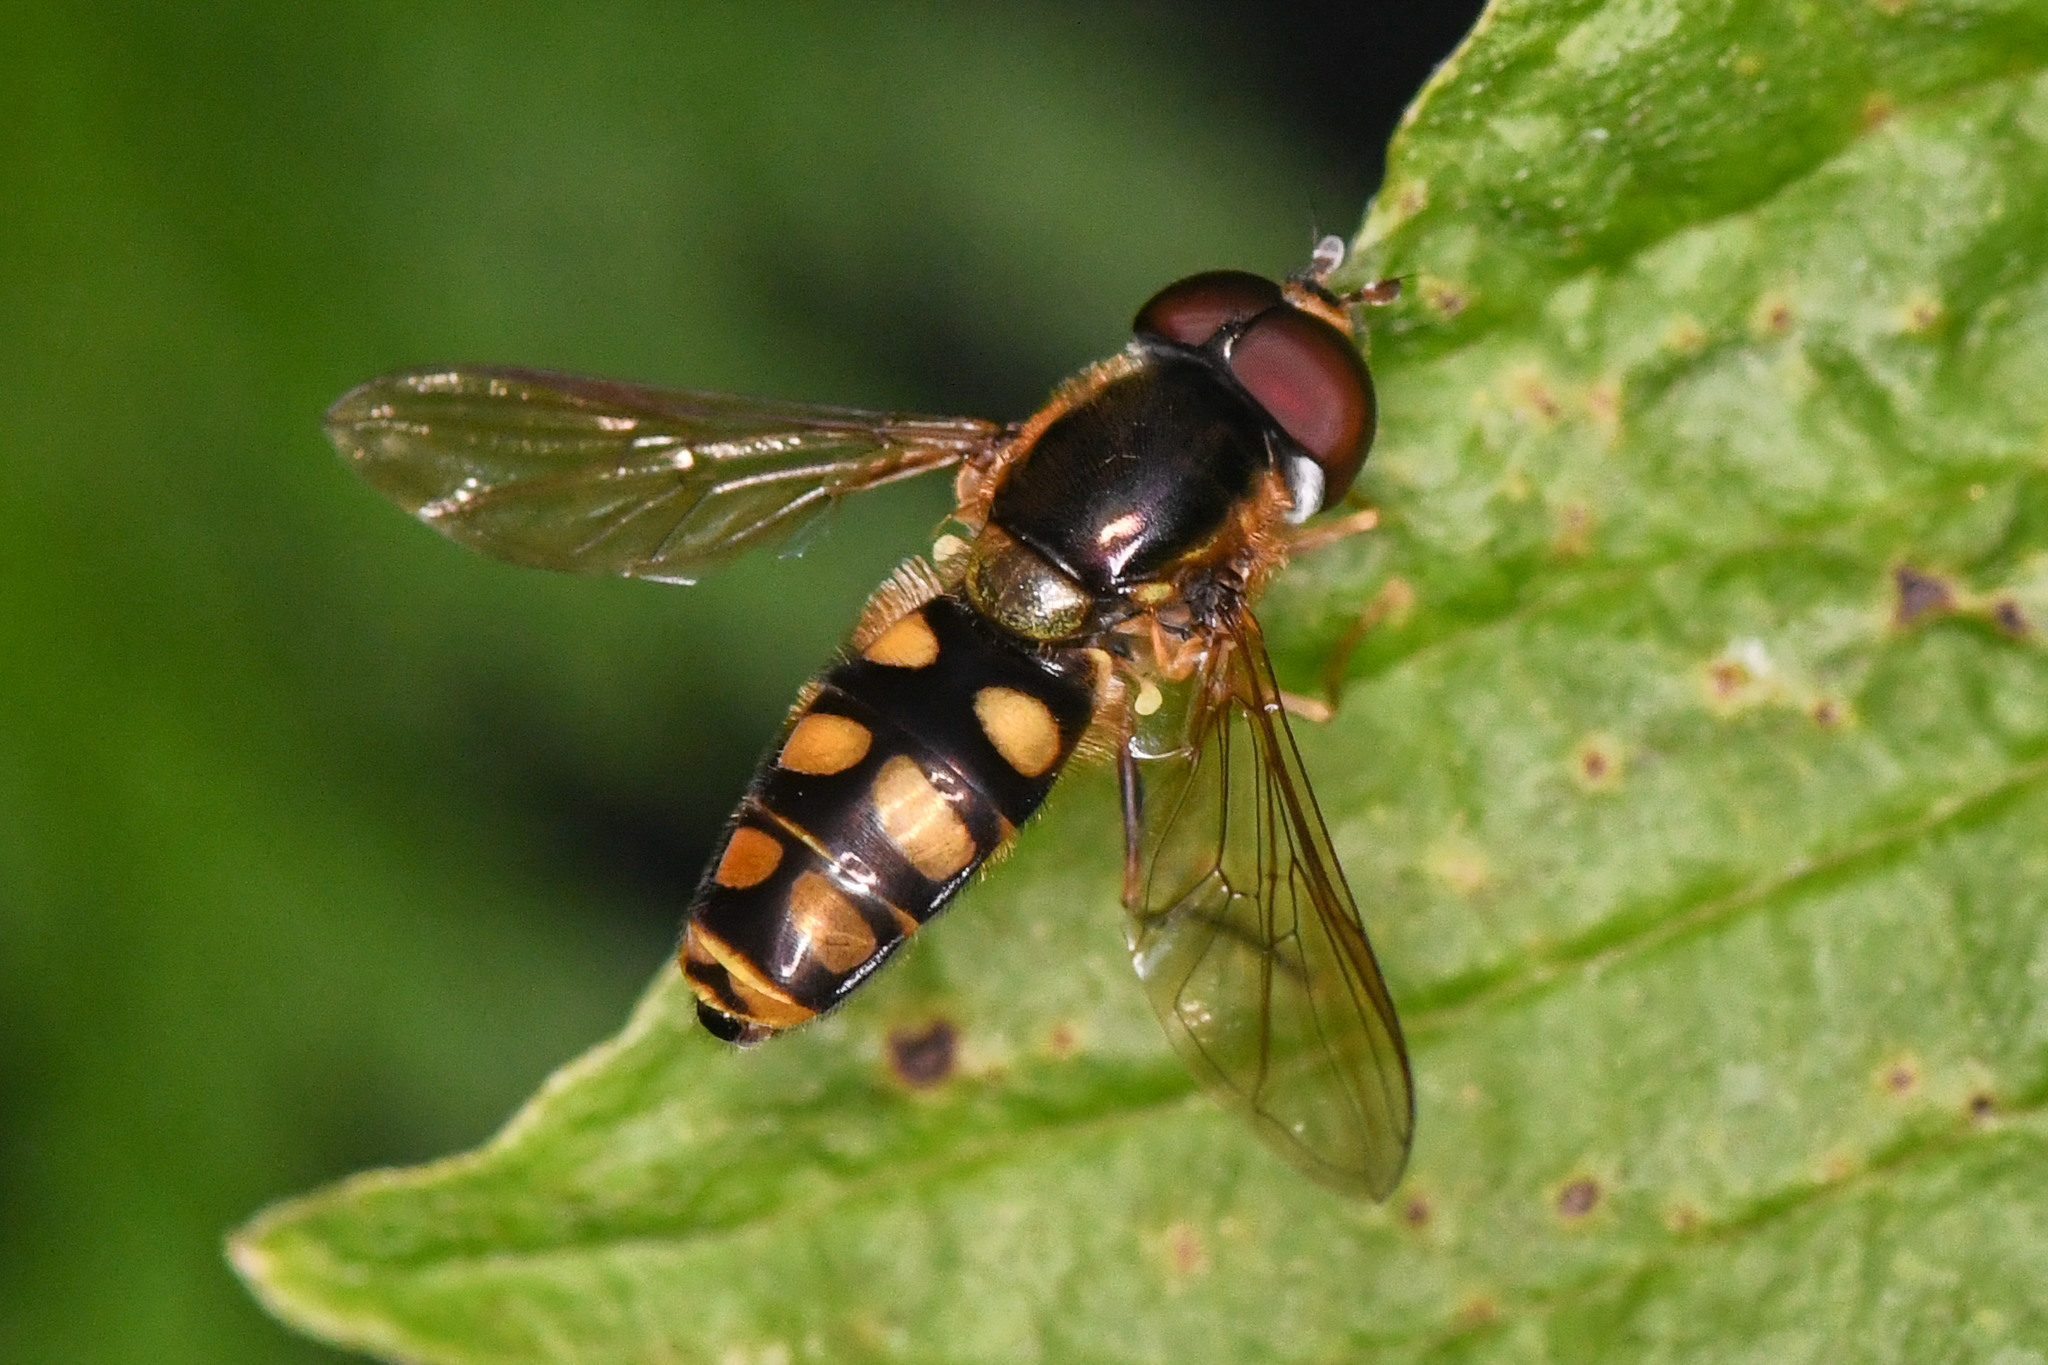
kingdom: Animalia
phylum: Arthropoda
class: Insecta
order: Diptera
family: Syrphidae
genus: Epistrophella
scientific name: Epistrophella emarginata
